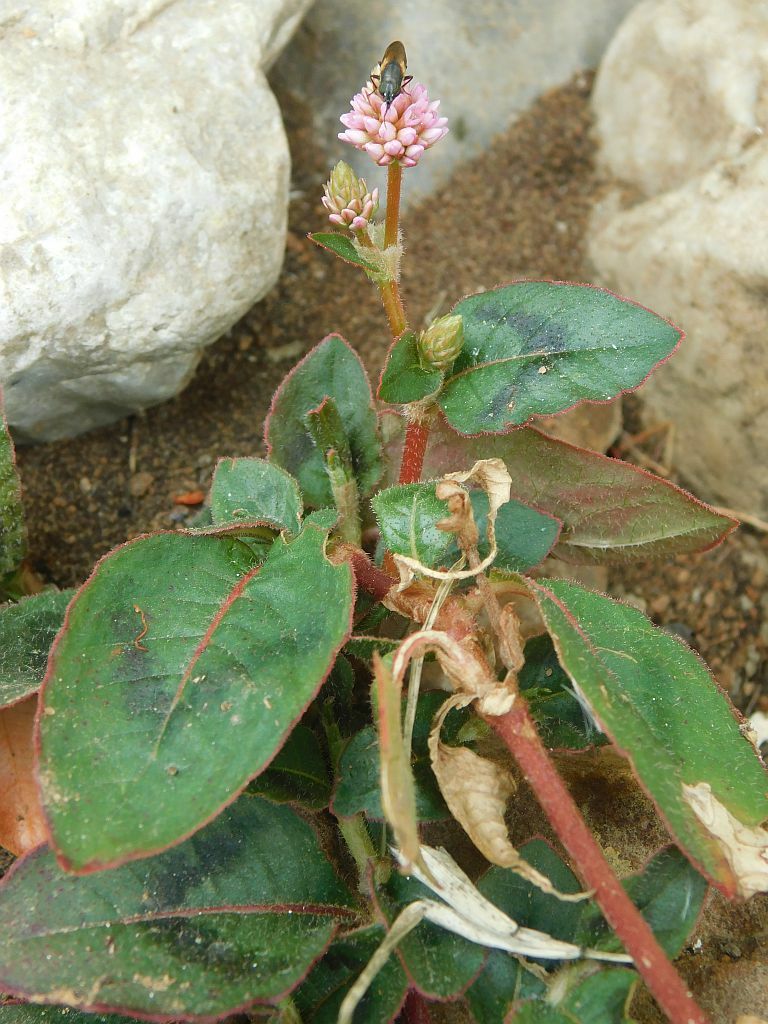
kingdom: Plantae
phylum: Tracheophyta
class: Magnoliopsida
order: Caryophyllales
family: Polygonaceae
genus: Persicaria
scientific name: Persicaria capitata
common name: Pinkhead smartweed
